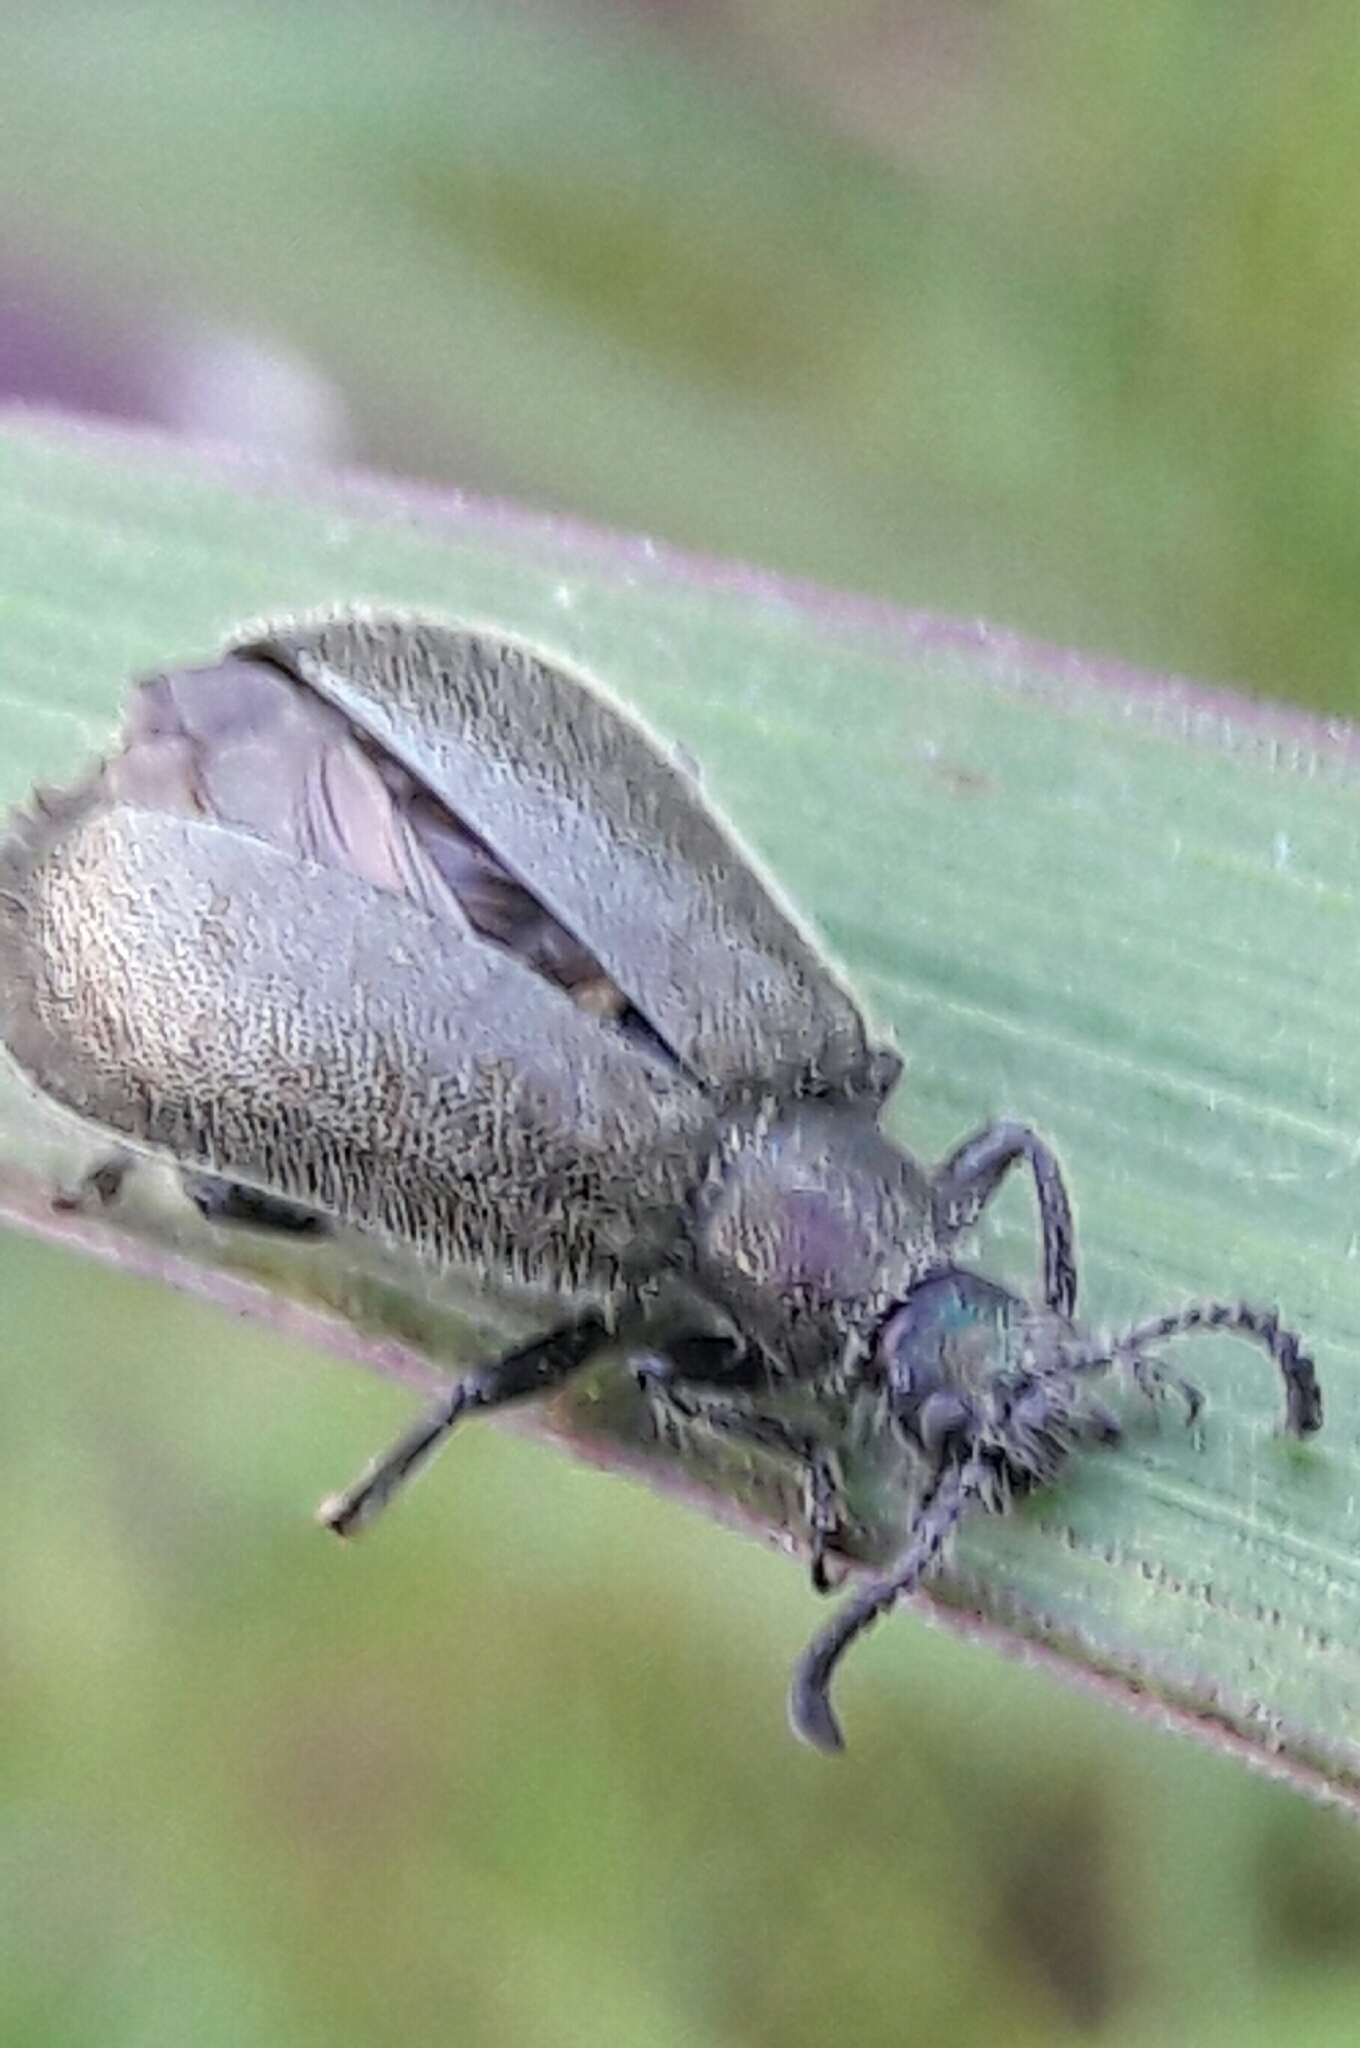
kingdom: Animalia
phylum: Arthropoda
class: Insecta
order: Coleoptera
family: Tenebrionidae
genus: Lagria
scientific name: Lagria villosa
